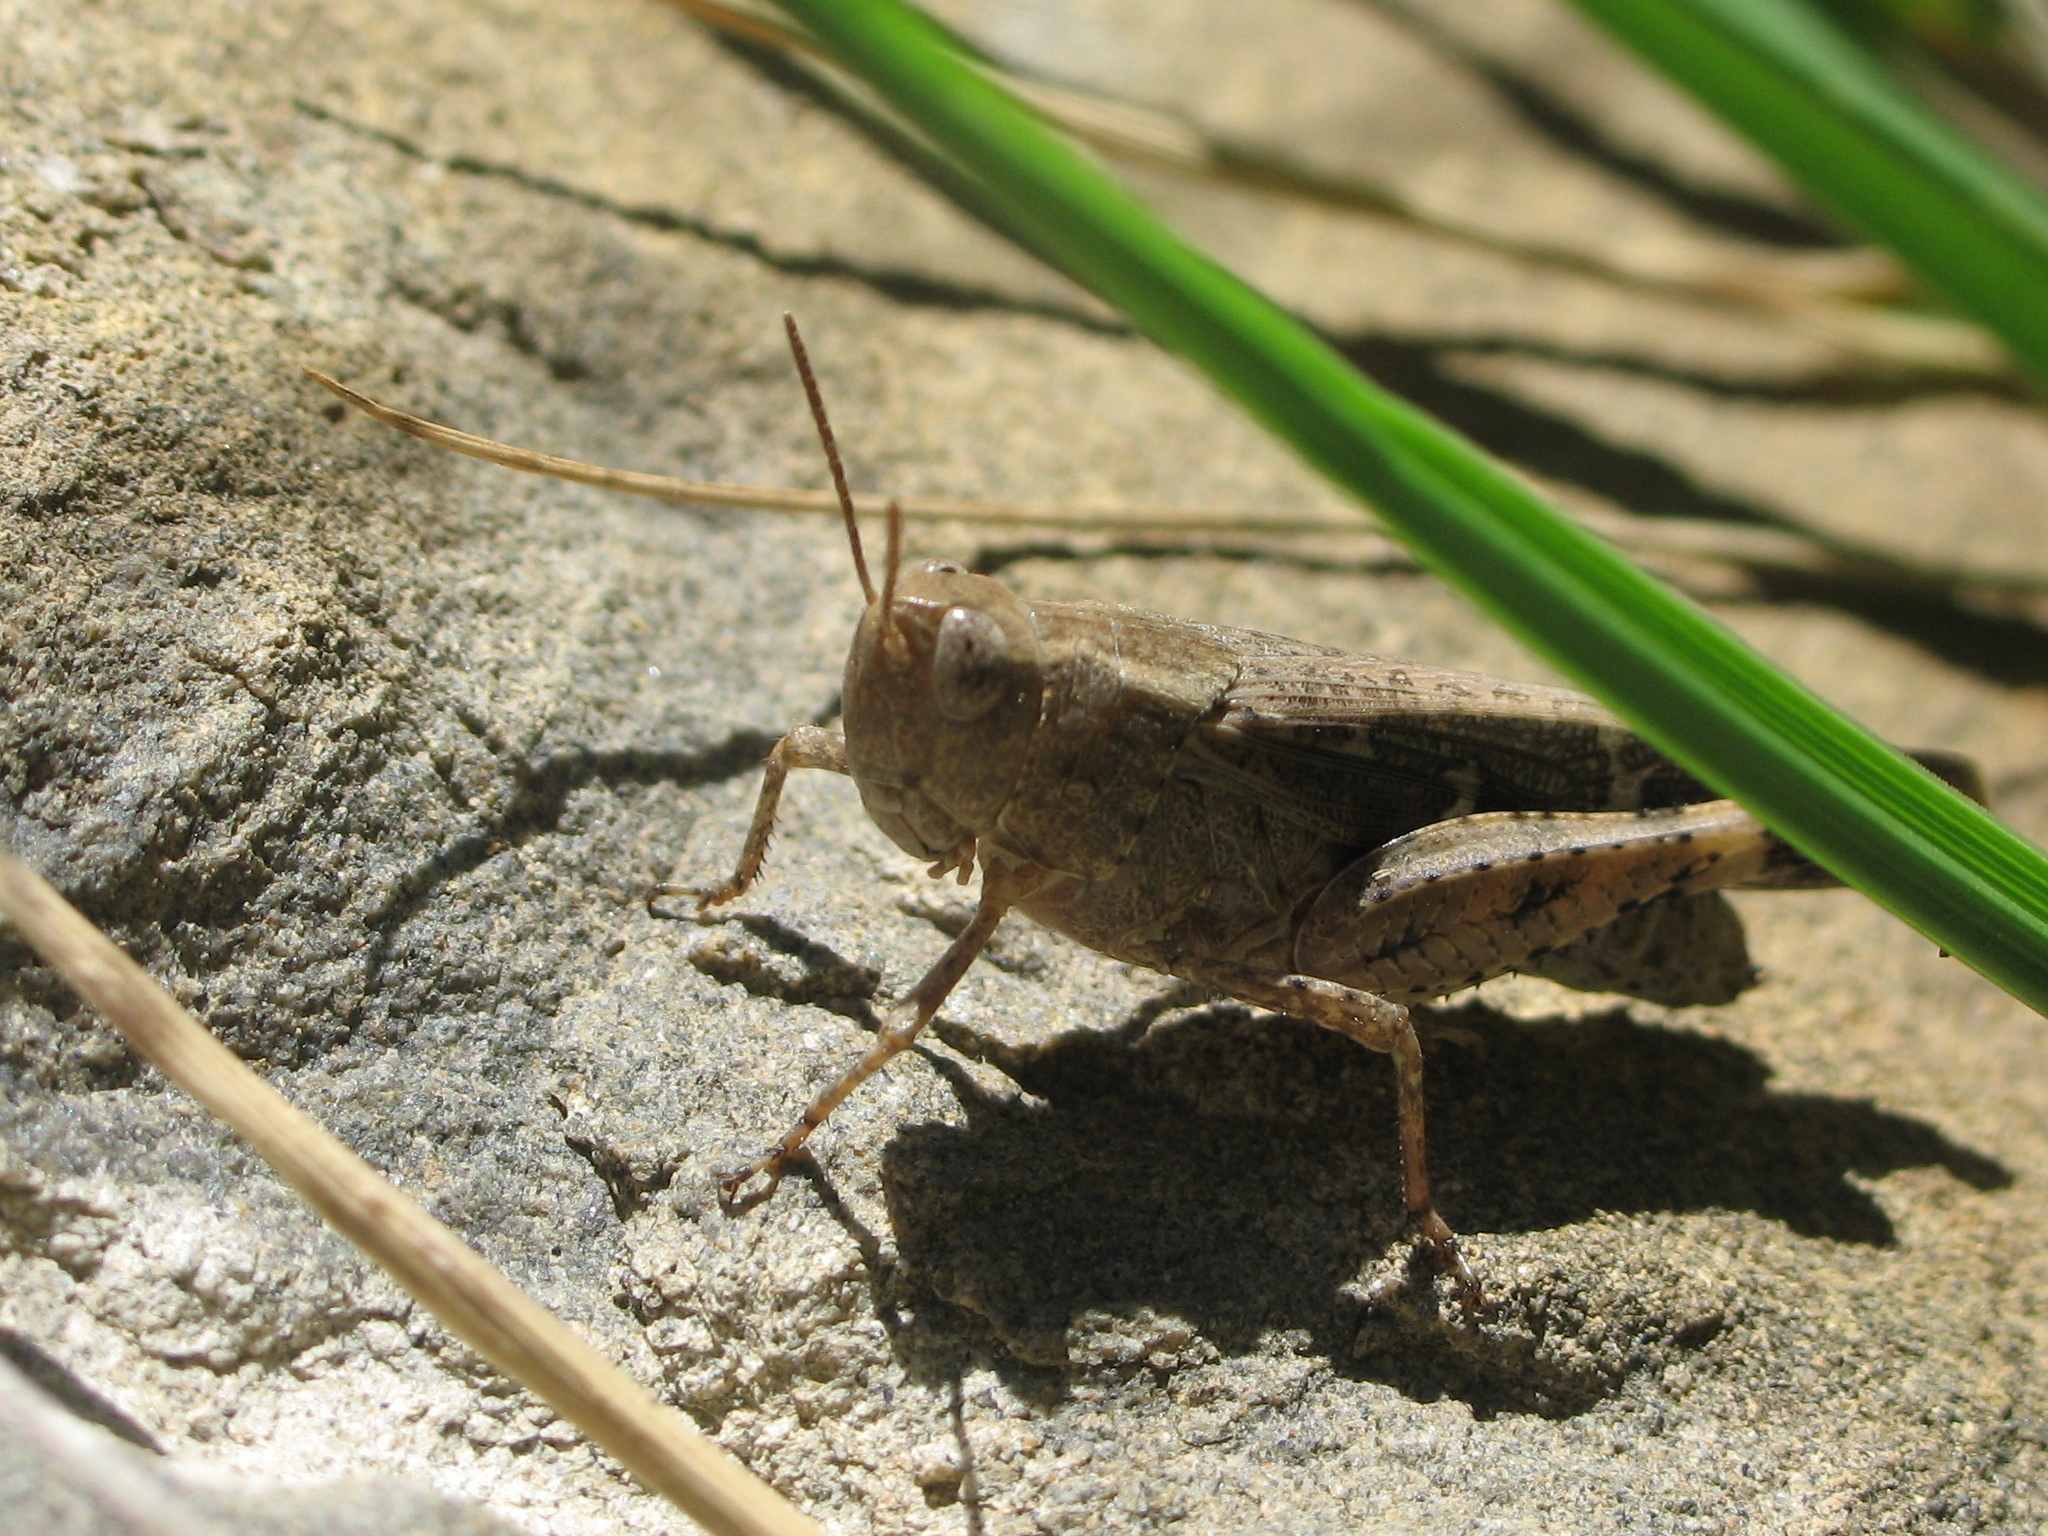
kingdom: Animalia
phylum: Arthropoda
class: Insecta
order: Orthoptera
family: Acrididae
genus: Aiolopus
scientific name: Aiolopus strepens
